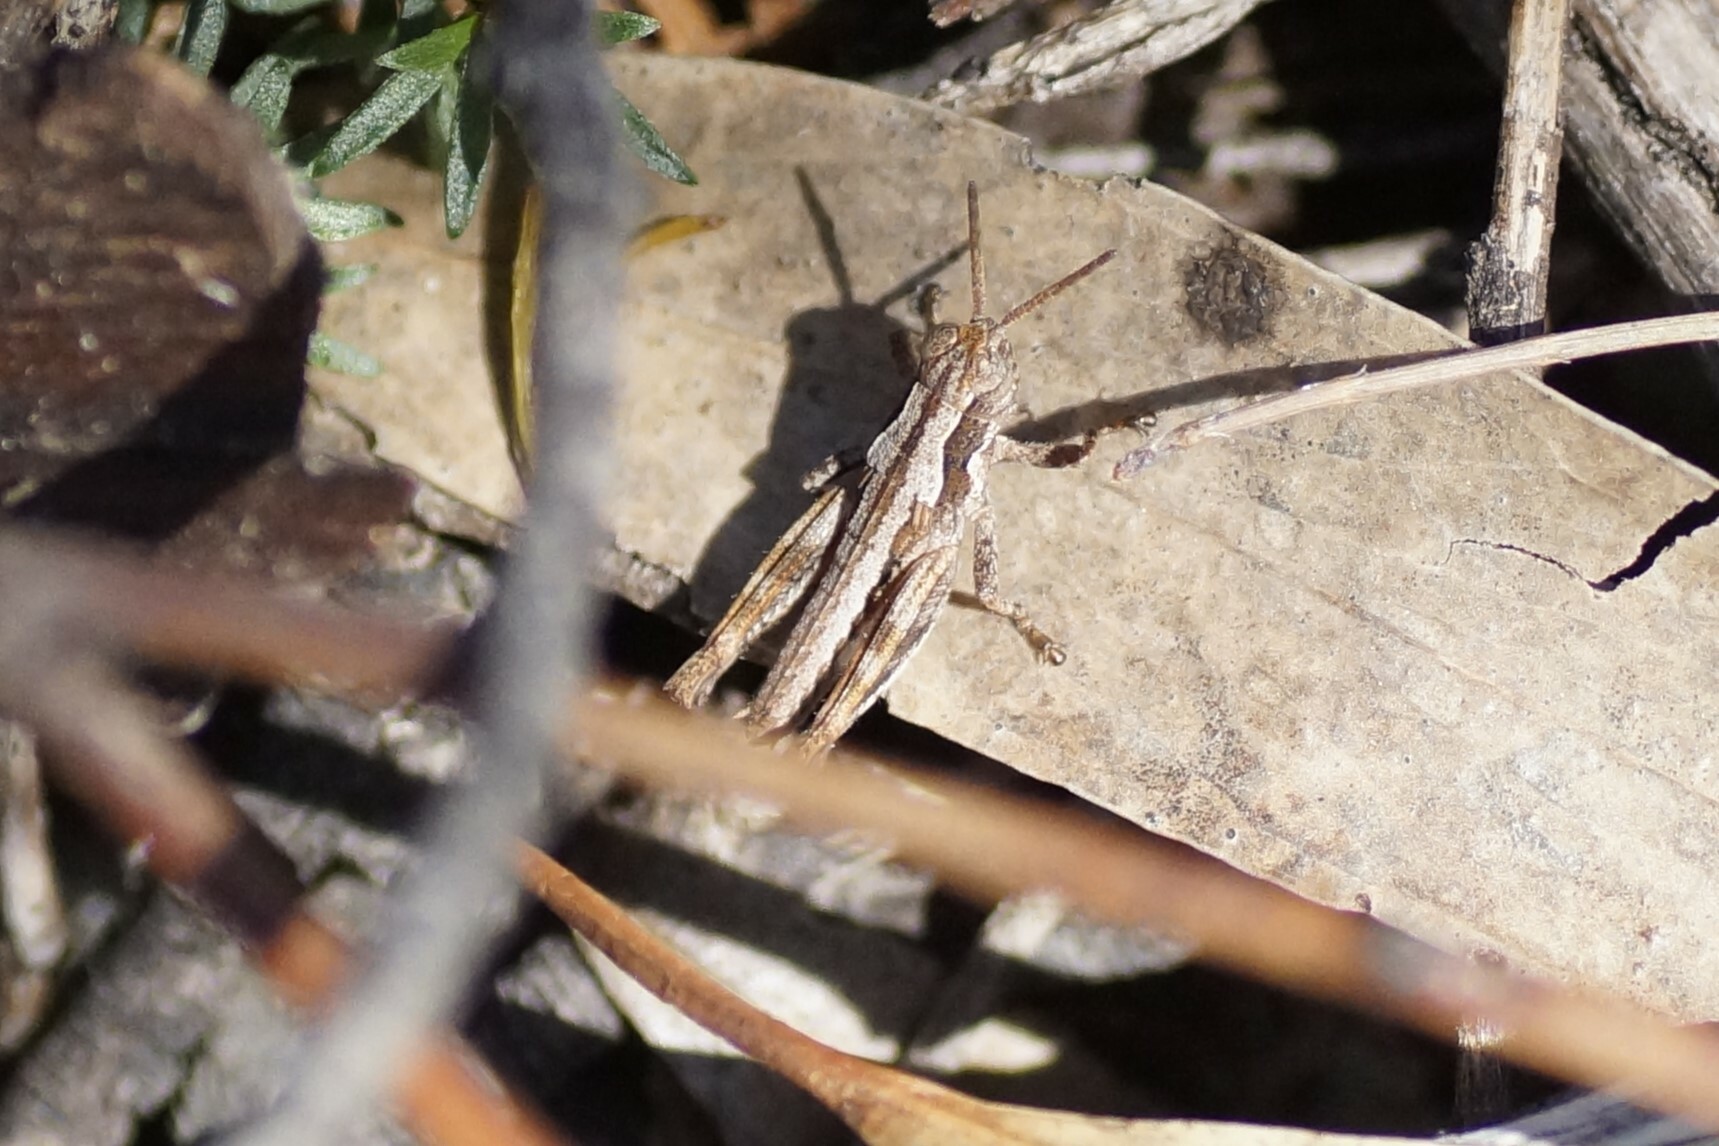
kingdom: Animalia
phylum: Arthropoda
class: Insecta
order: Orthoptera
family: Acrididae
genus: Tasmaniacris
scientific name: Tasmaniacris tasmaniensis
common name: Tasmanian grasshopper
